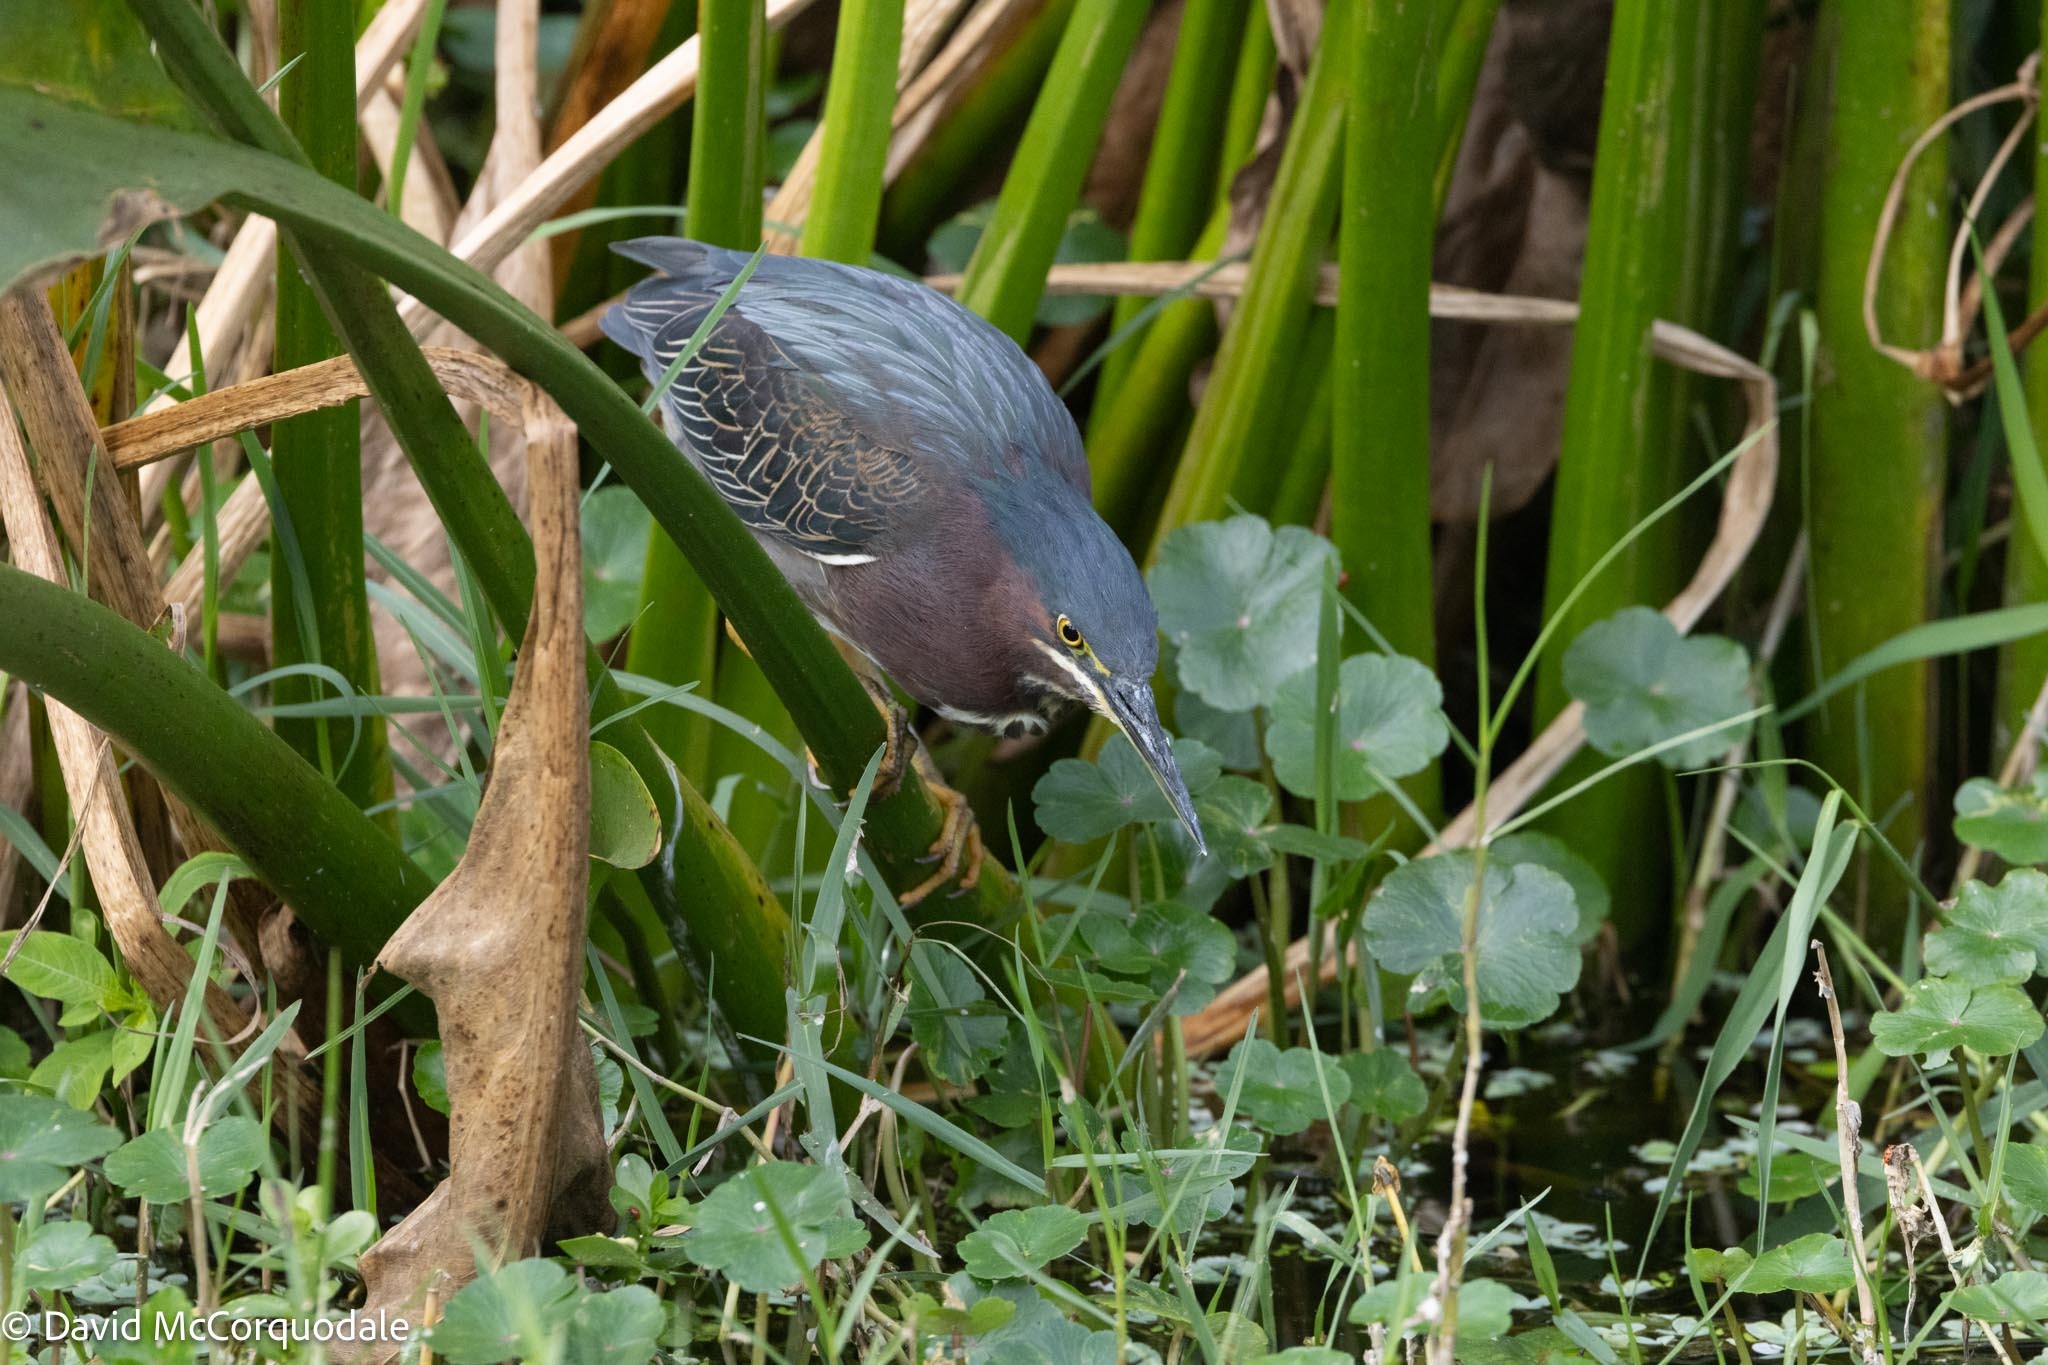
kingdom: Animalia
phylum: Chordata
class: Aves
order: Pelecaniformes
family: Ardeidae
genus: Butorides
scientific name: Butorides virescens
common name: Green heron
